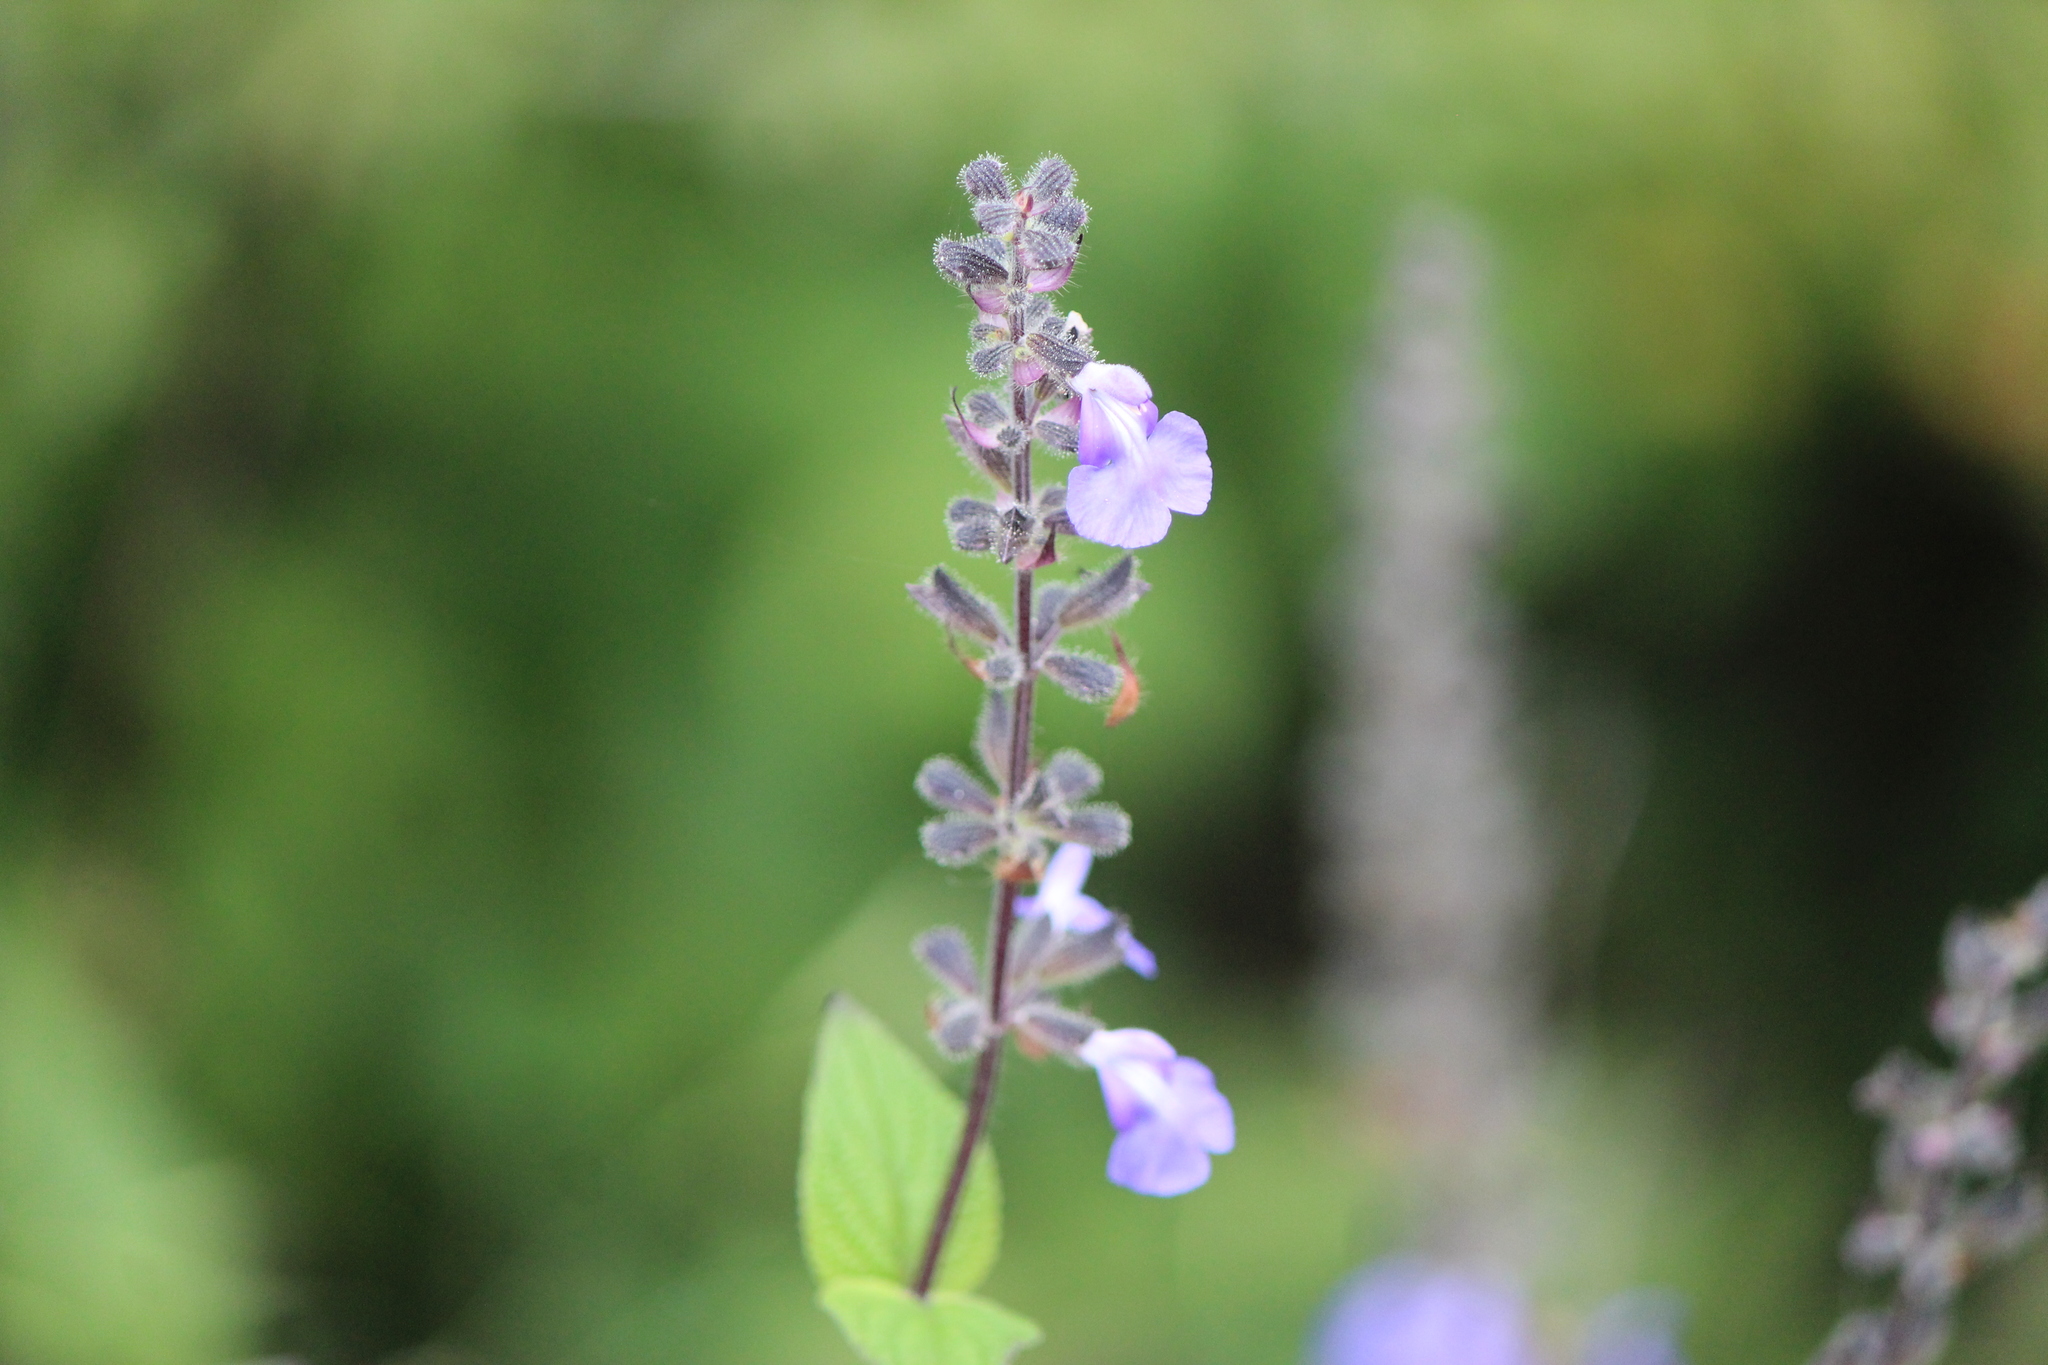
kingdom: Plantae
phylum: Tracheophyta
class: Magnoliopsida
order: Lamiales
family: Lamiaceae
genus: Salvia
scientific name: Salvia circinnata
